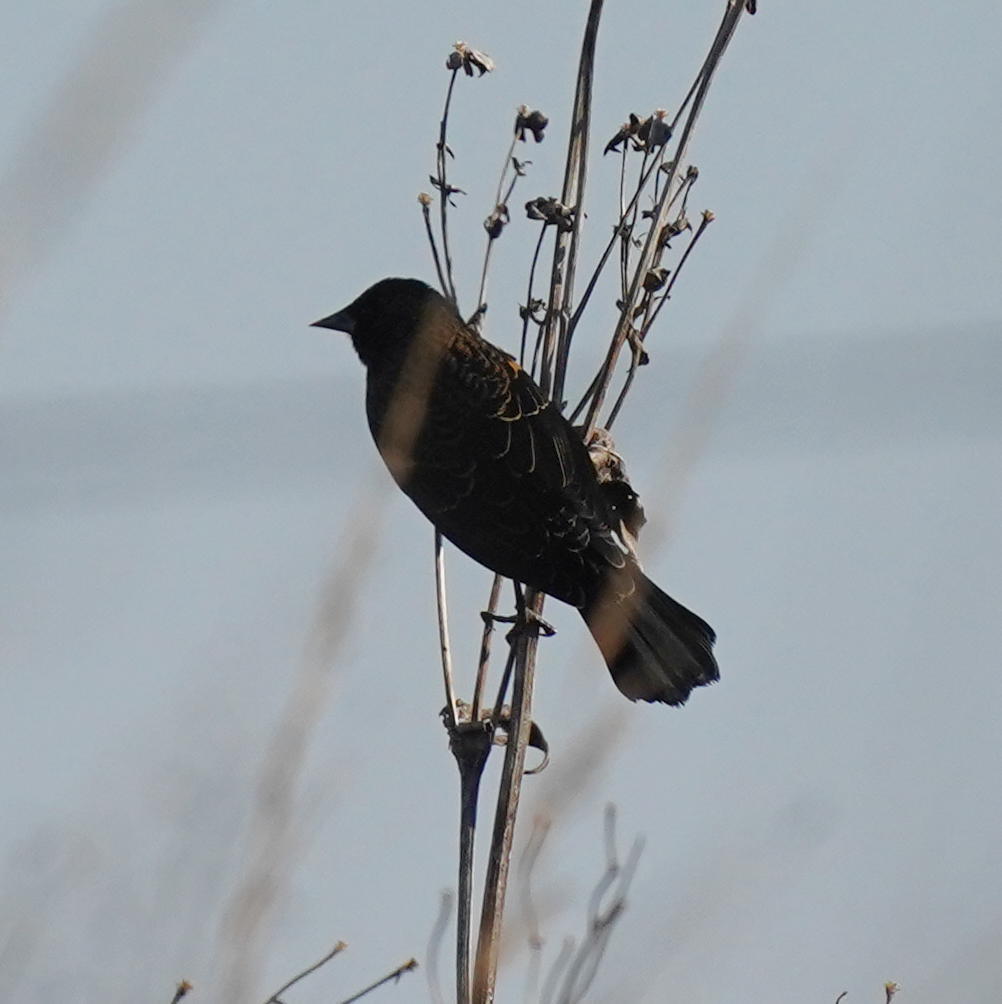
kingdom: Animalia
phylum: Chordata
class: Aves
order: Passeriformes
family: Icteridae
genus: Agelaius
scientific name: Agelaius phoeniceus
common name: Red-winged blackbird
